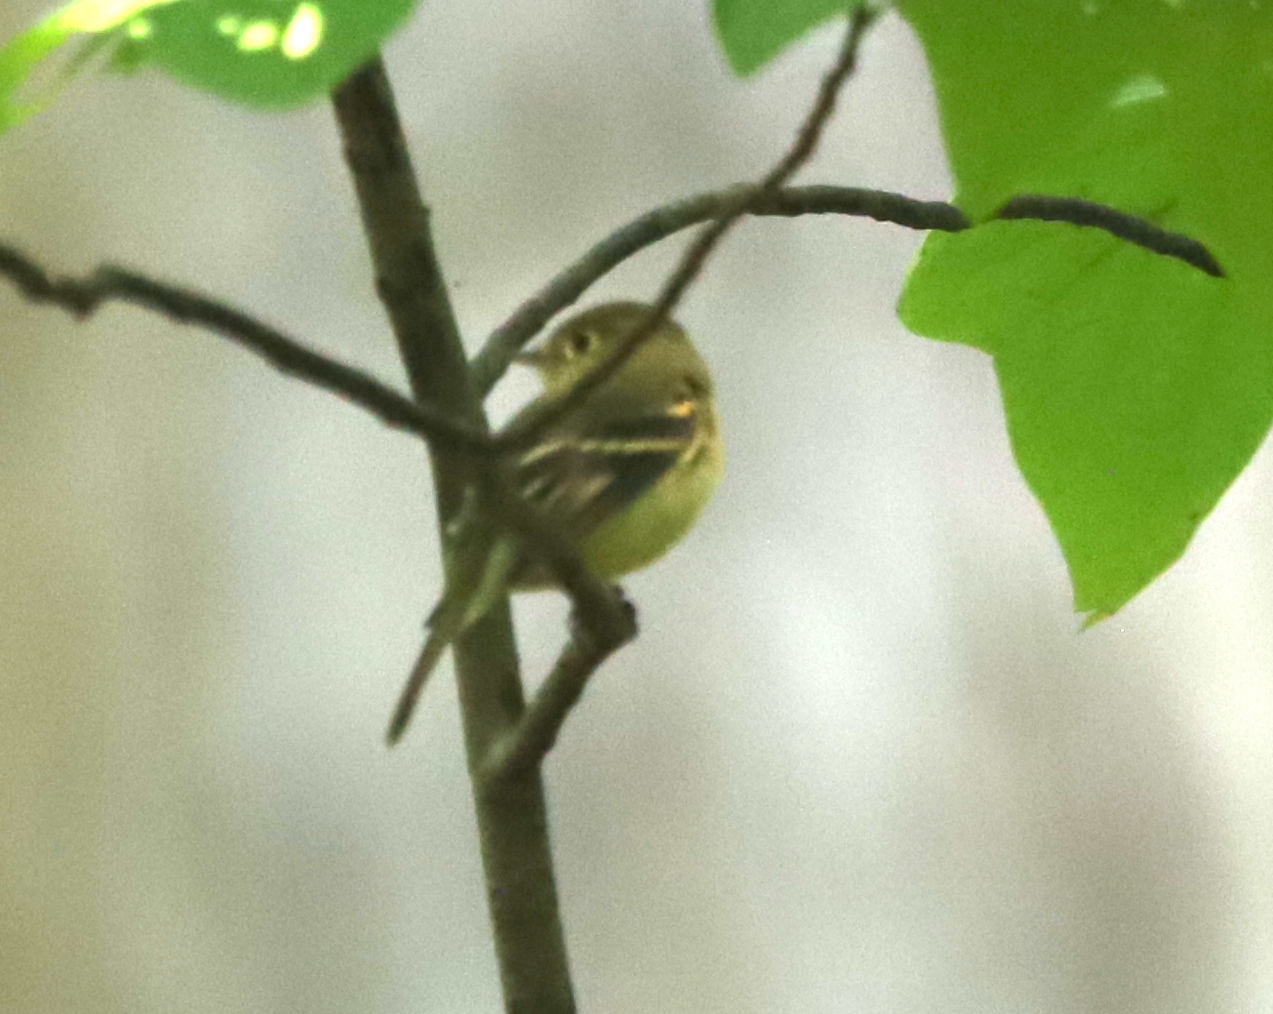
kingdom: Animalia
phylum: Chordata
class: Aves
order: Passeriformes
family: Tyrannidae
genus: Empidonax
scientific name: Empidonax flaviventris
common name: Yellow-bellied flycatcher
